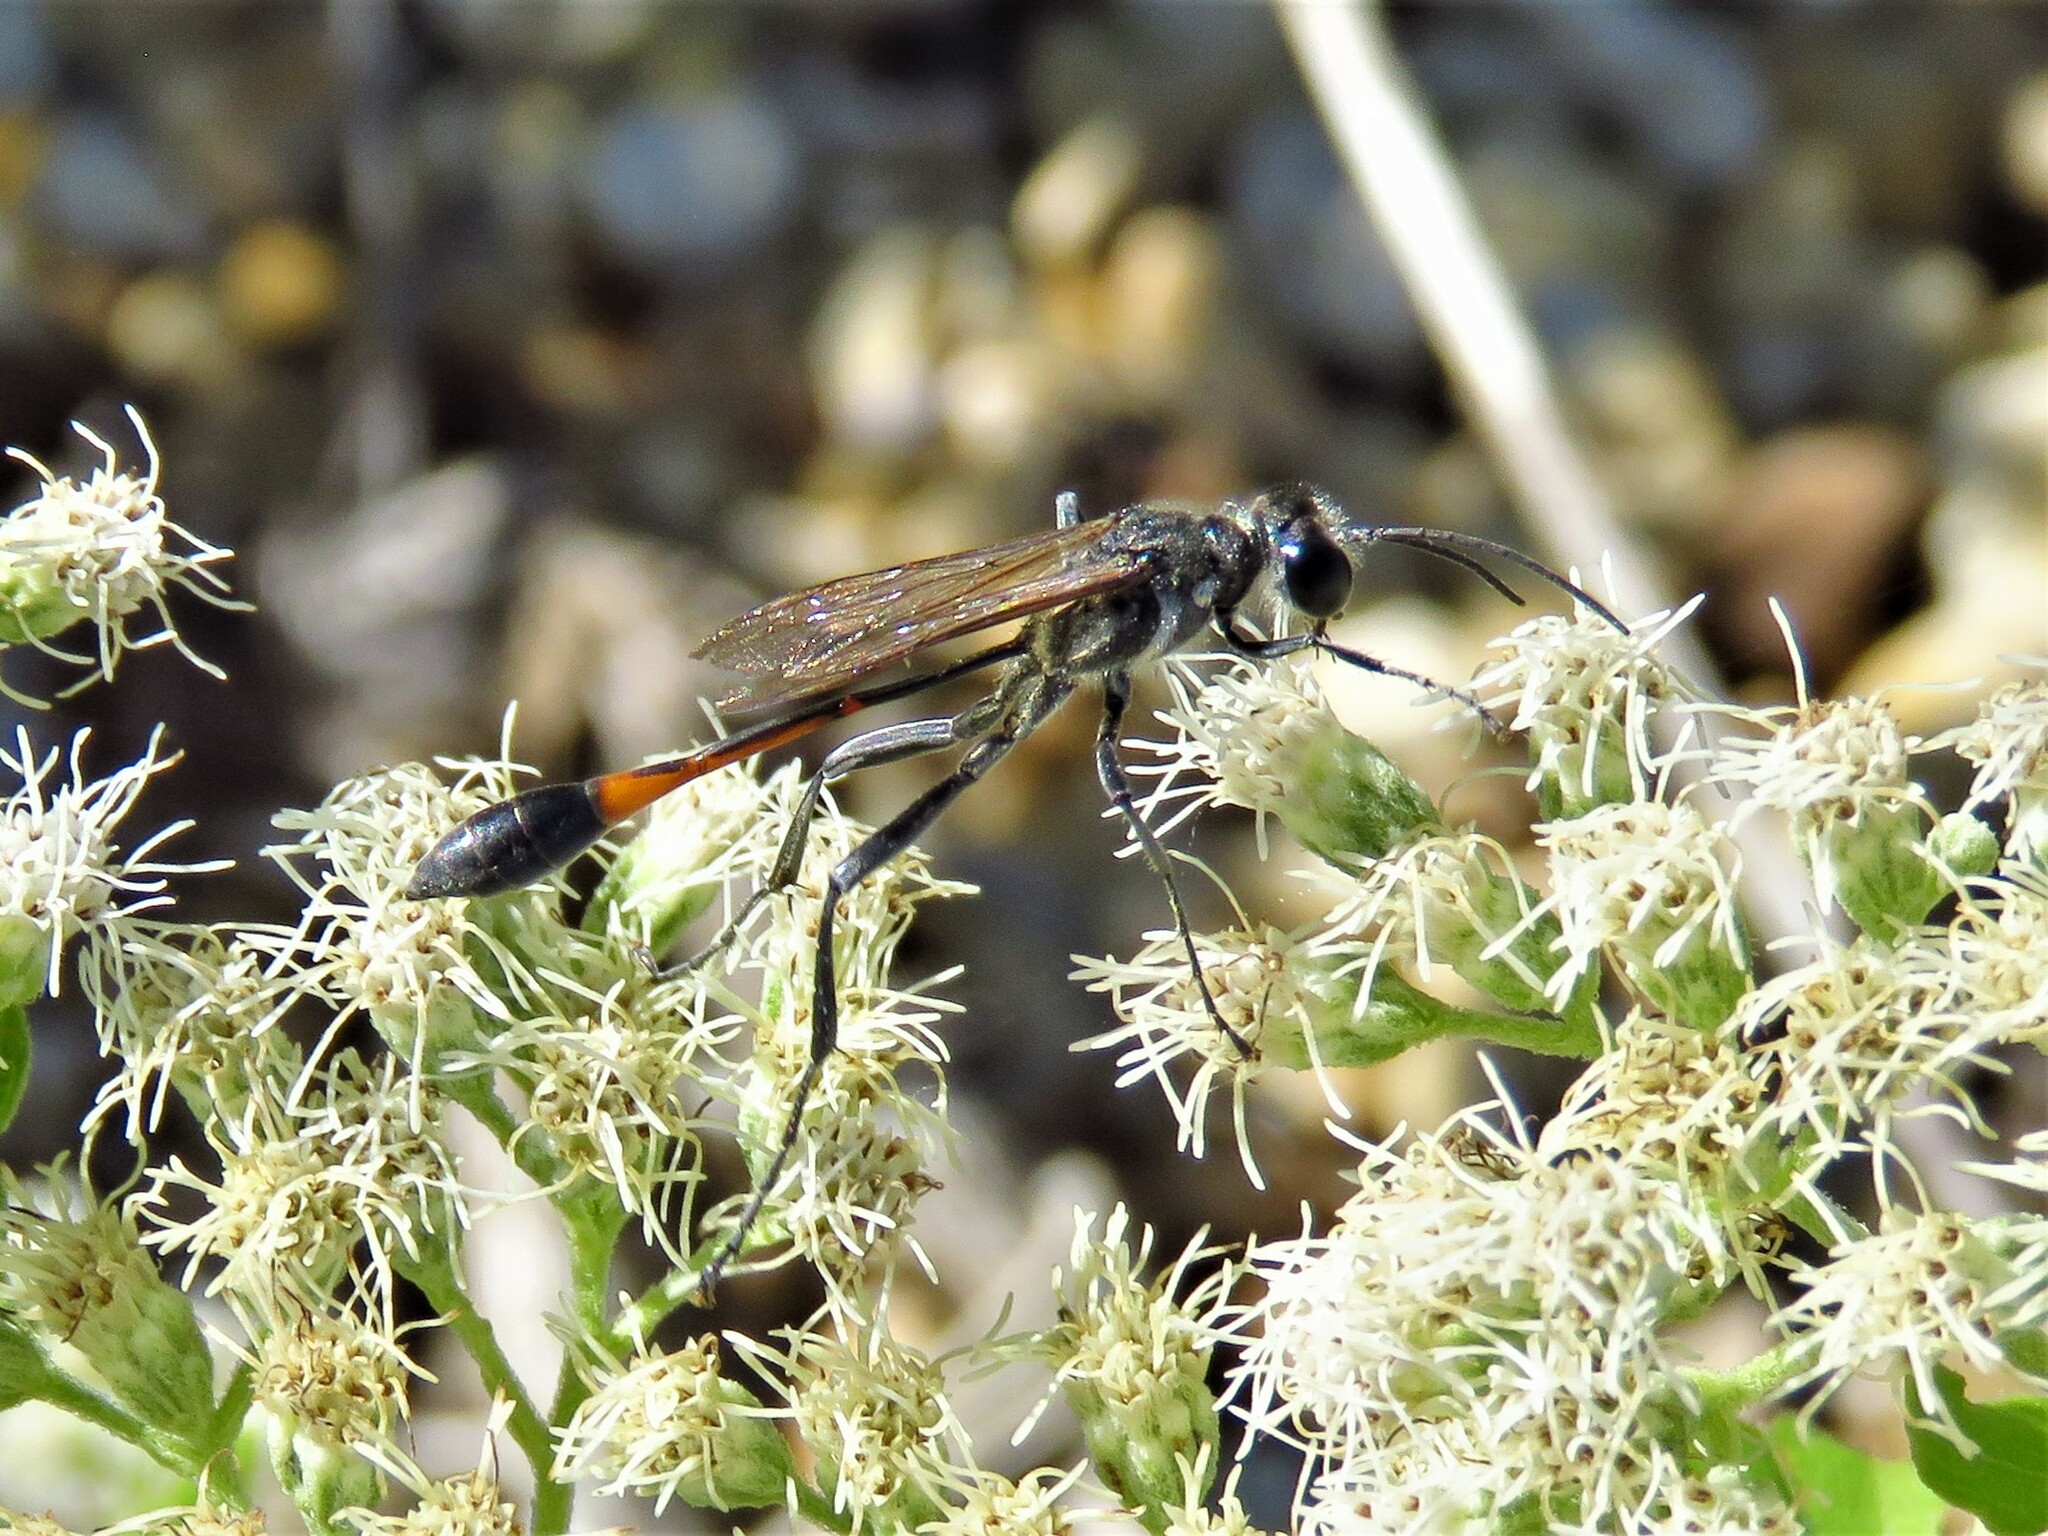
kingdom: Animalia
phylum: Arthropoda
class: Insecta
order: Hymenoptera
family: Sphecidae
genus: Ammophila
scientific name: Ammophila procera
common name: Common thread-waisted wasp
